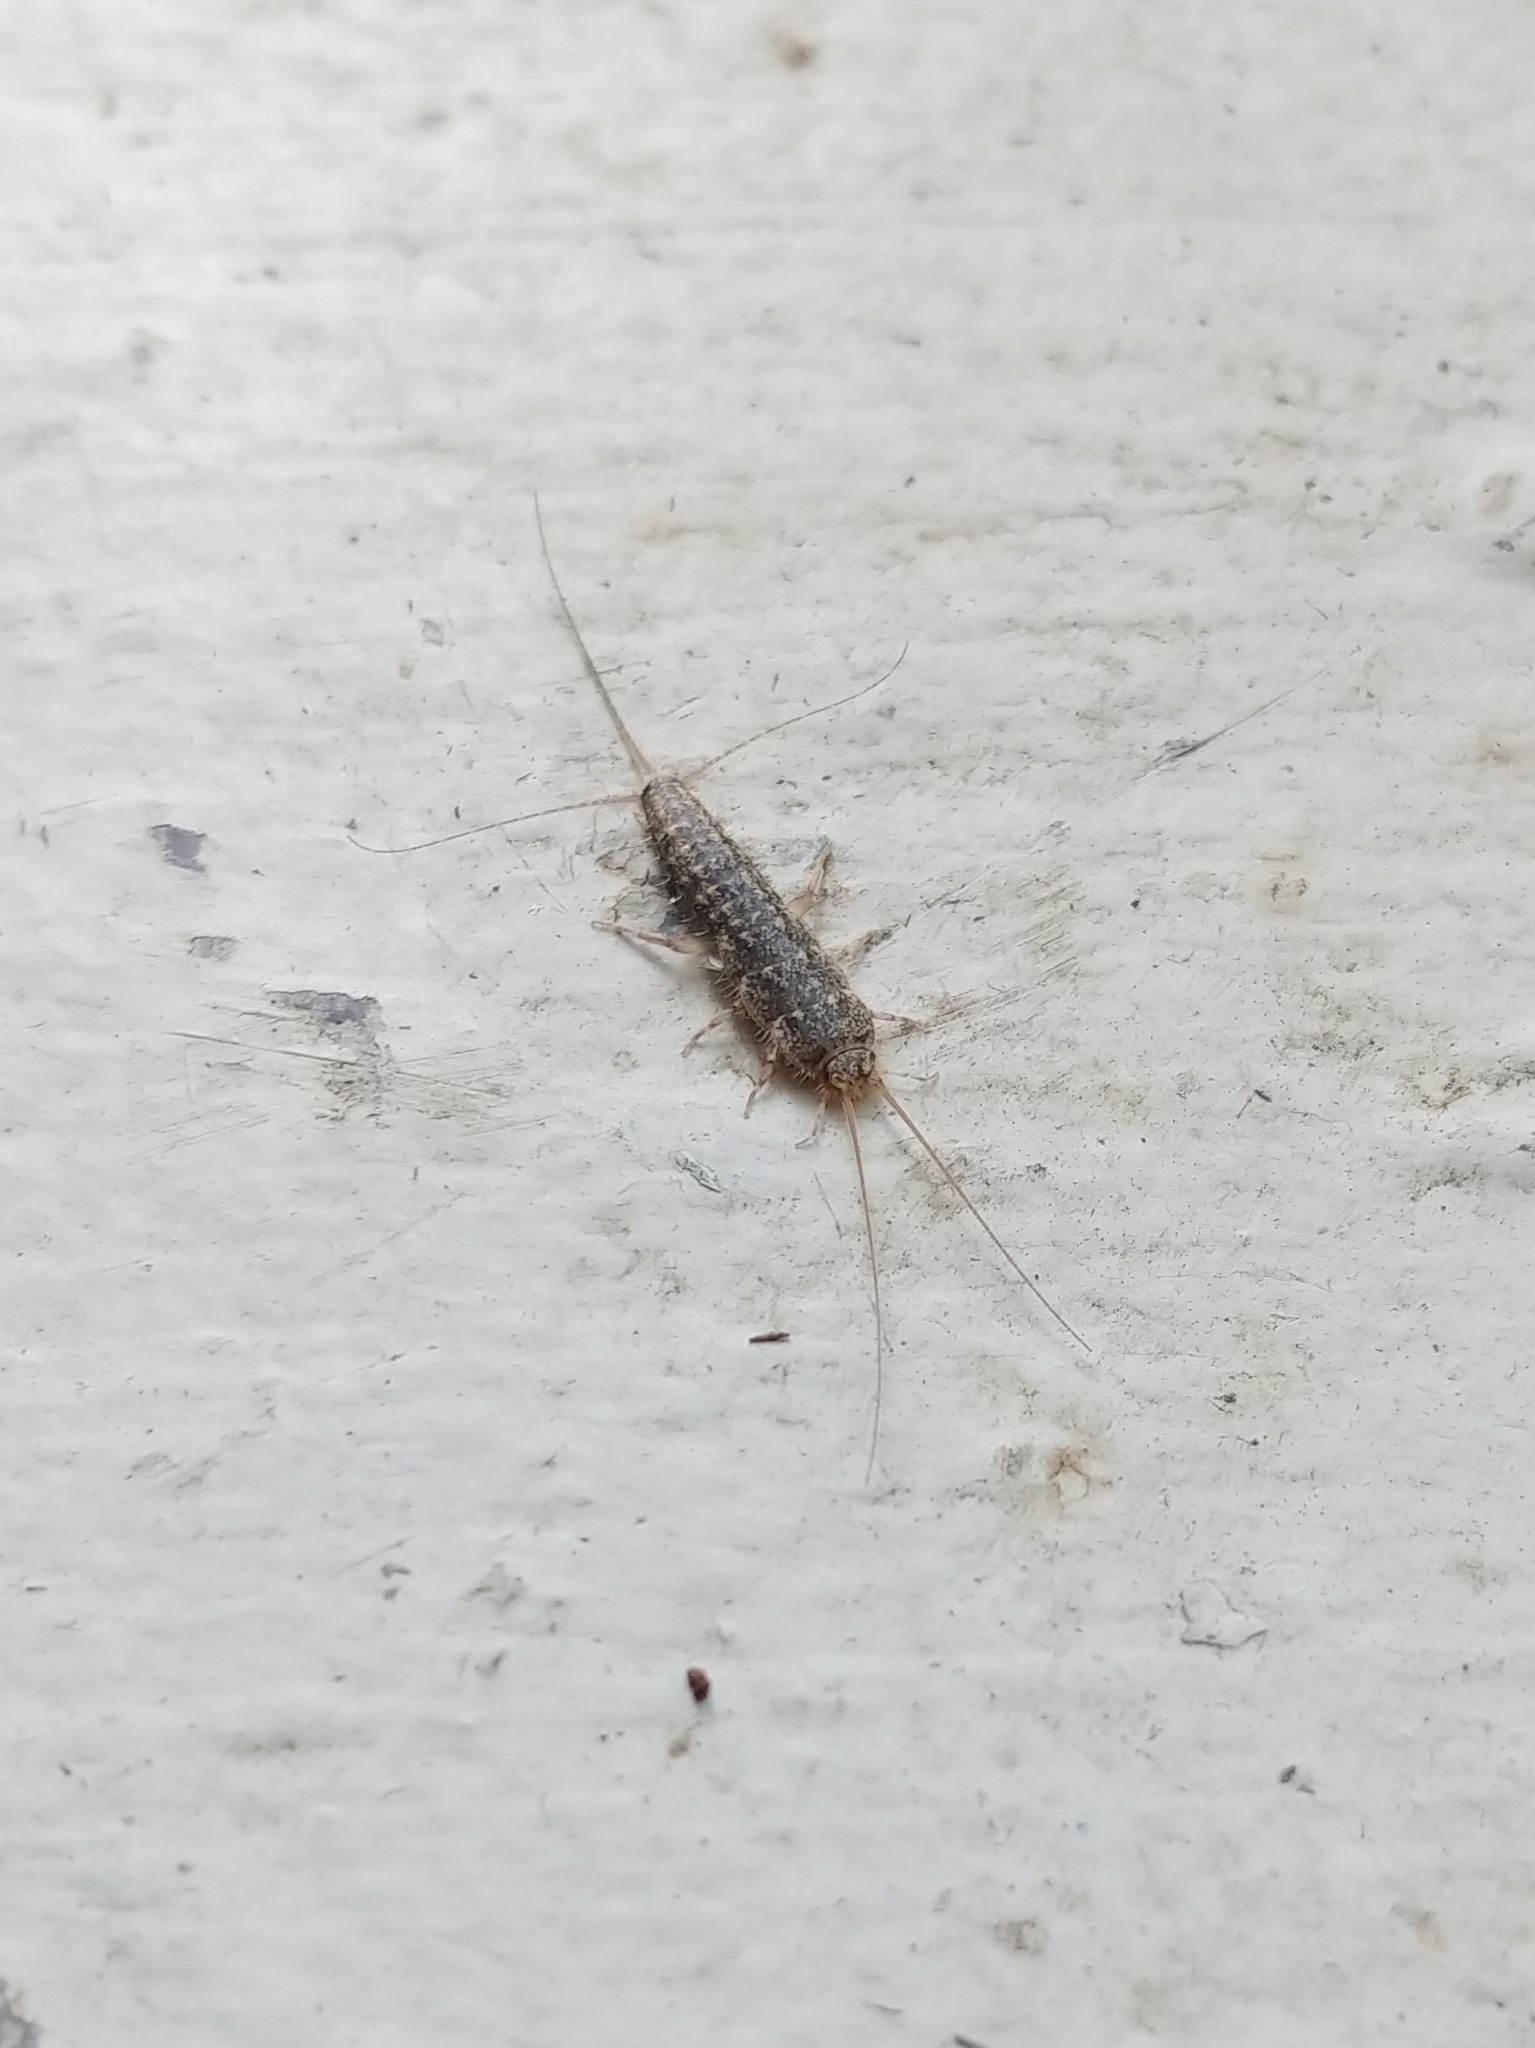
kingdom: Animalia
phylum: Arthropoda
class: Insecta
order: Zygentoma
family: Lepismatidae
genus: Ctenolepisma
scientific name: Ctenolepisma lineata
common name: Four-lined silverfish
